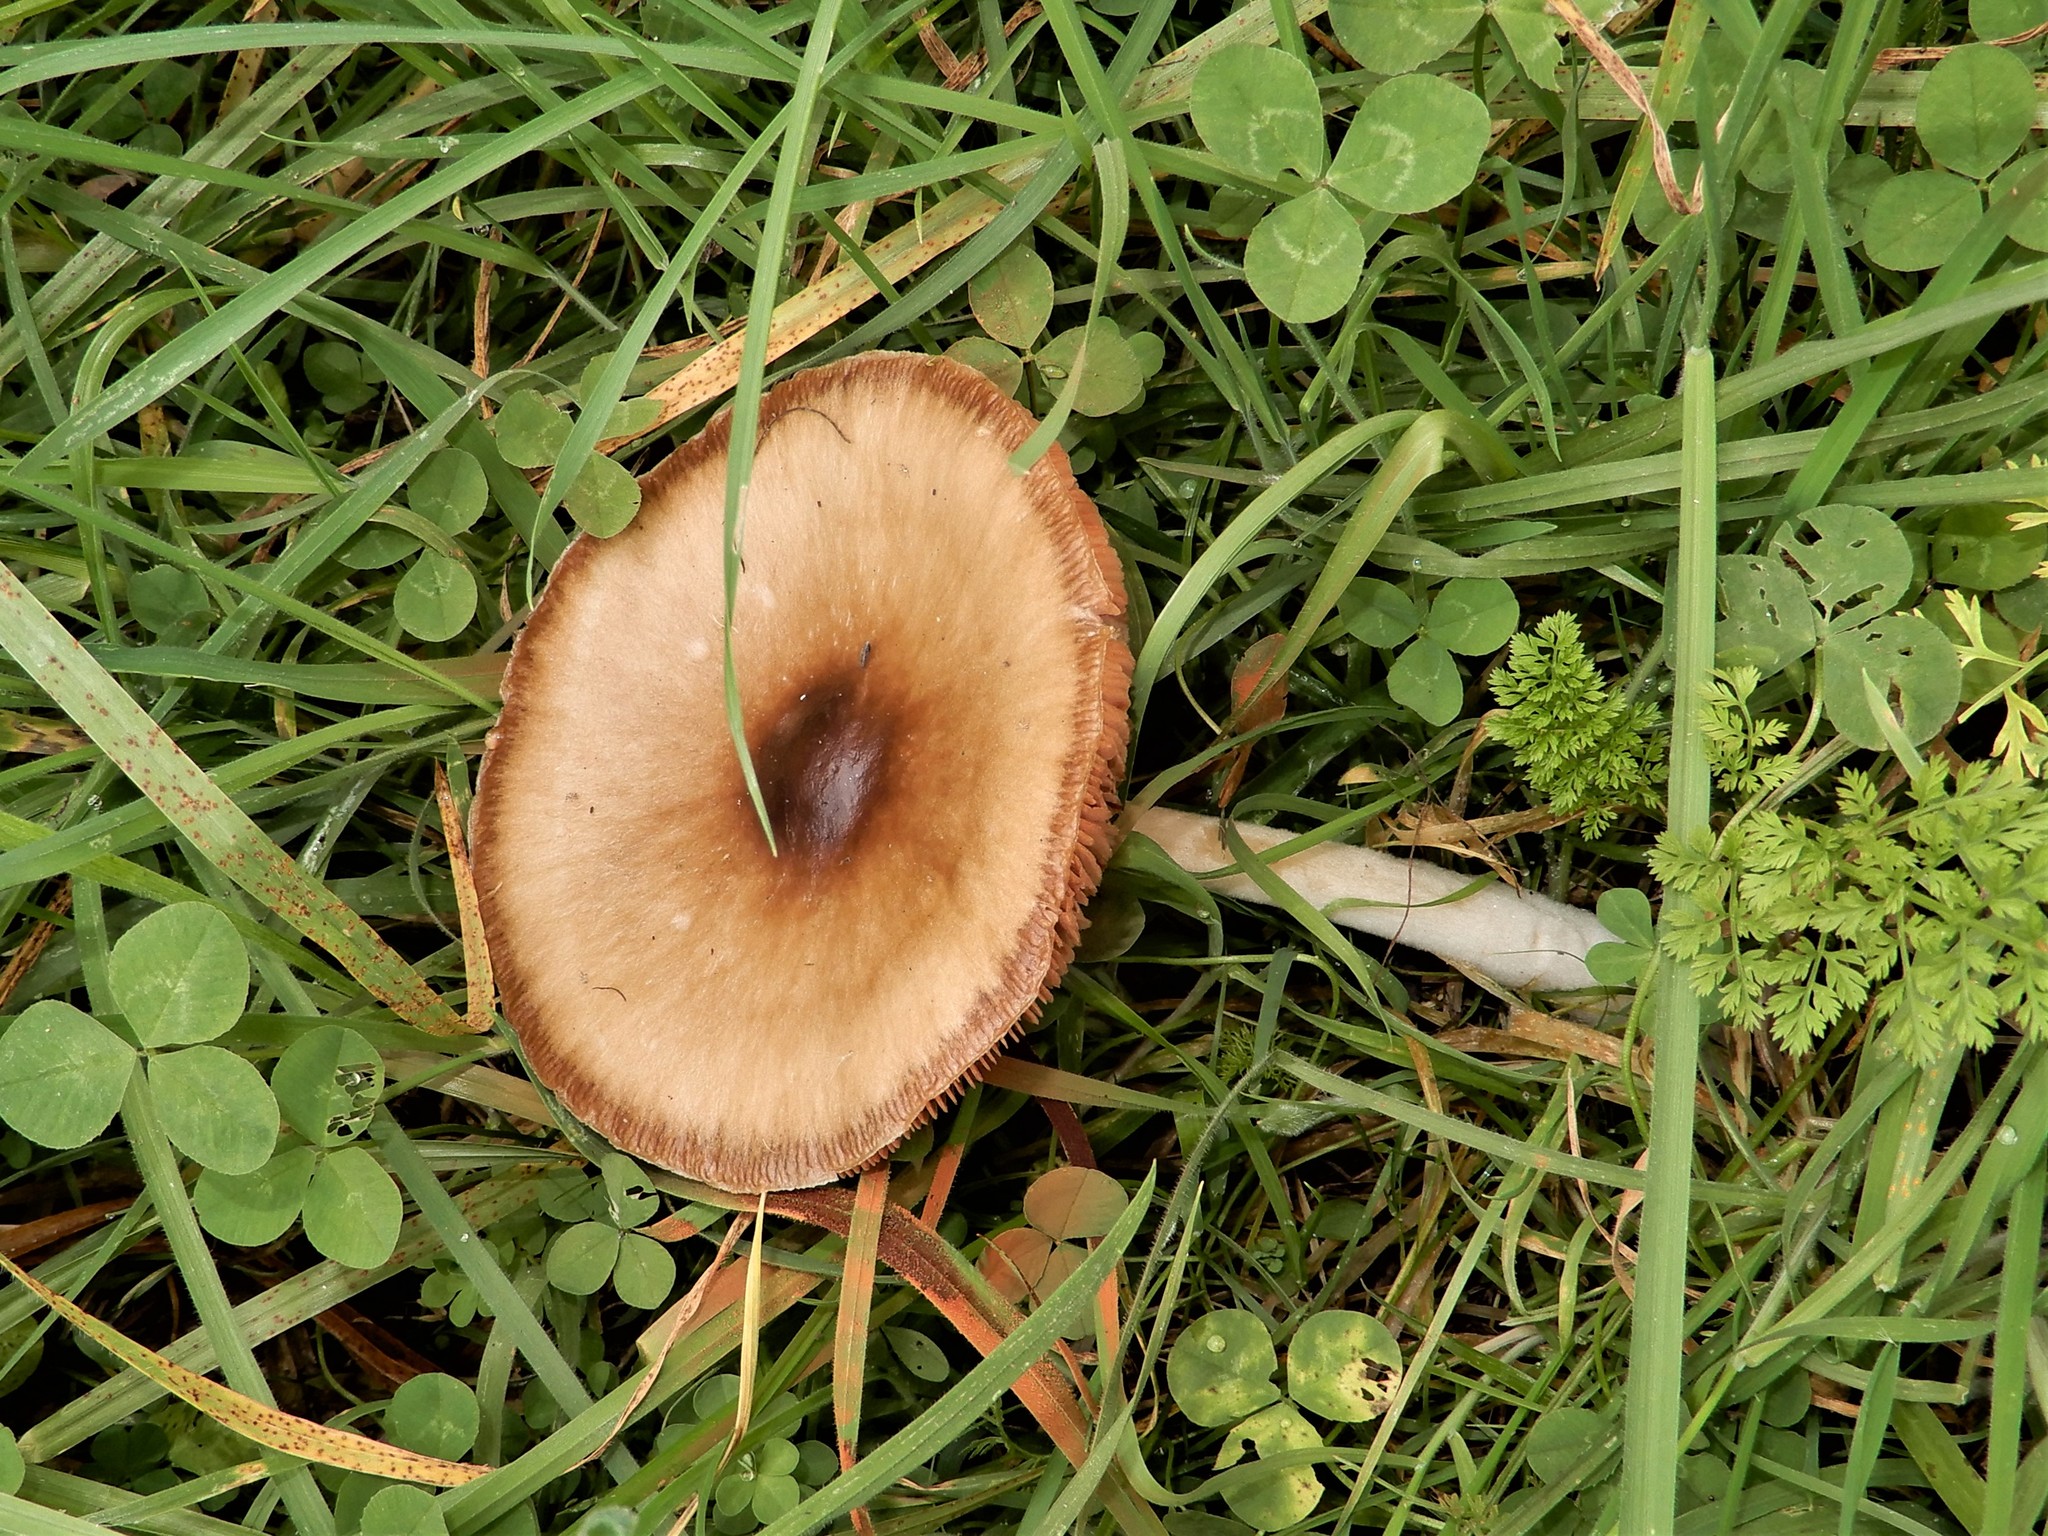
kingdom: Fungi
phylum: Basidiomycota
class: Agaricomycetes
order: Agaricales
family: Pluteaceae
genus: Volvopluteus
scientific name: Volvopluteus gloiocephalus
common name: Stubble rosegill
